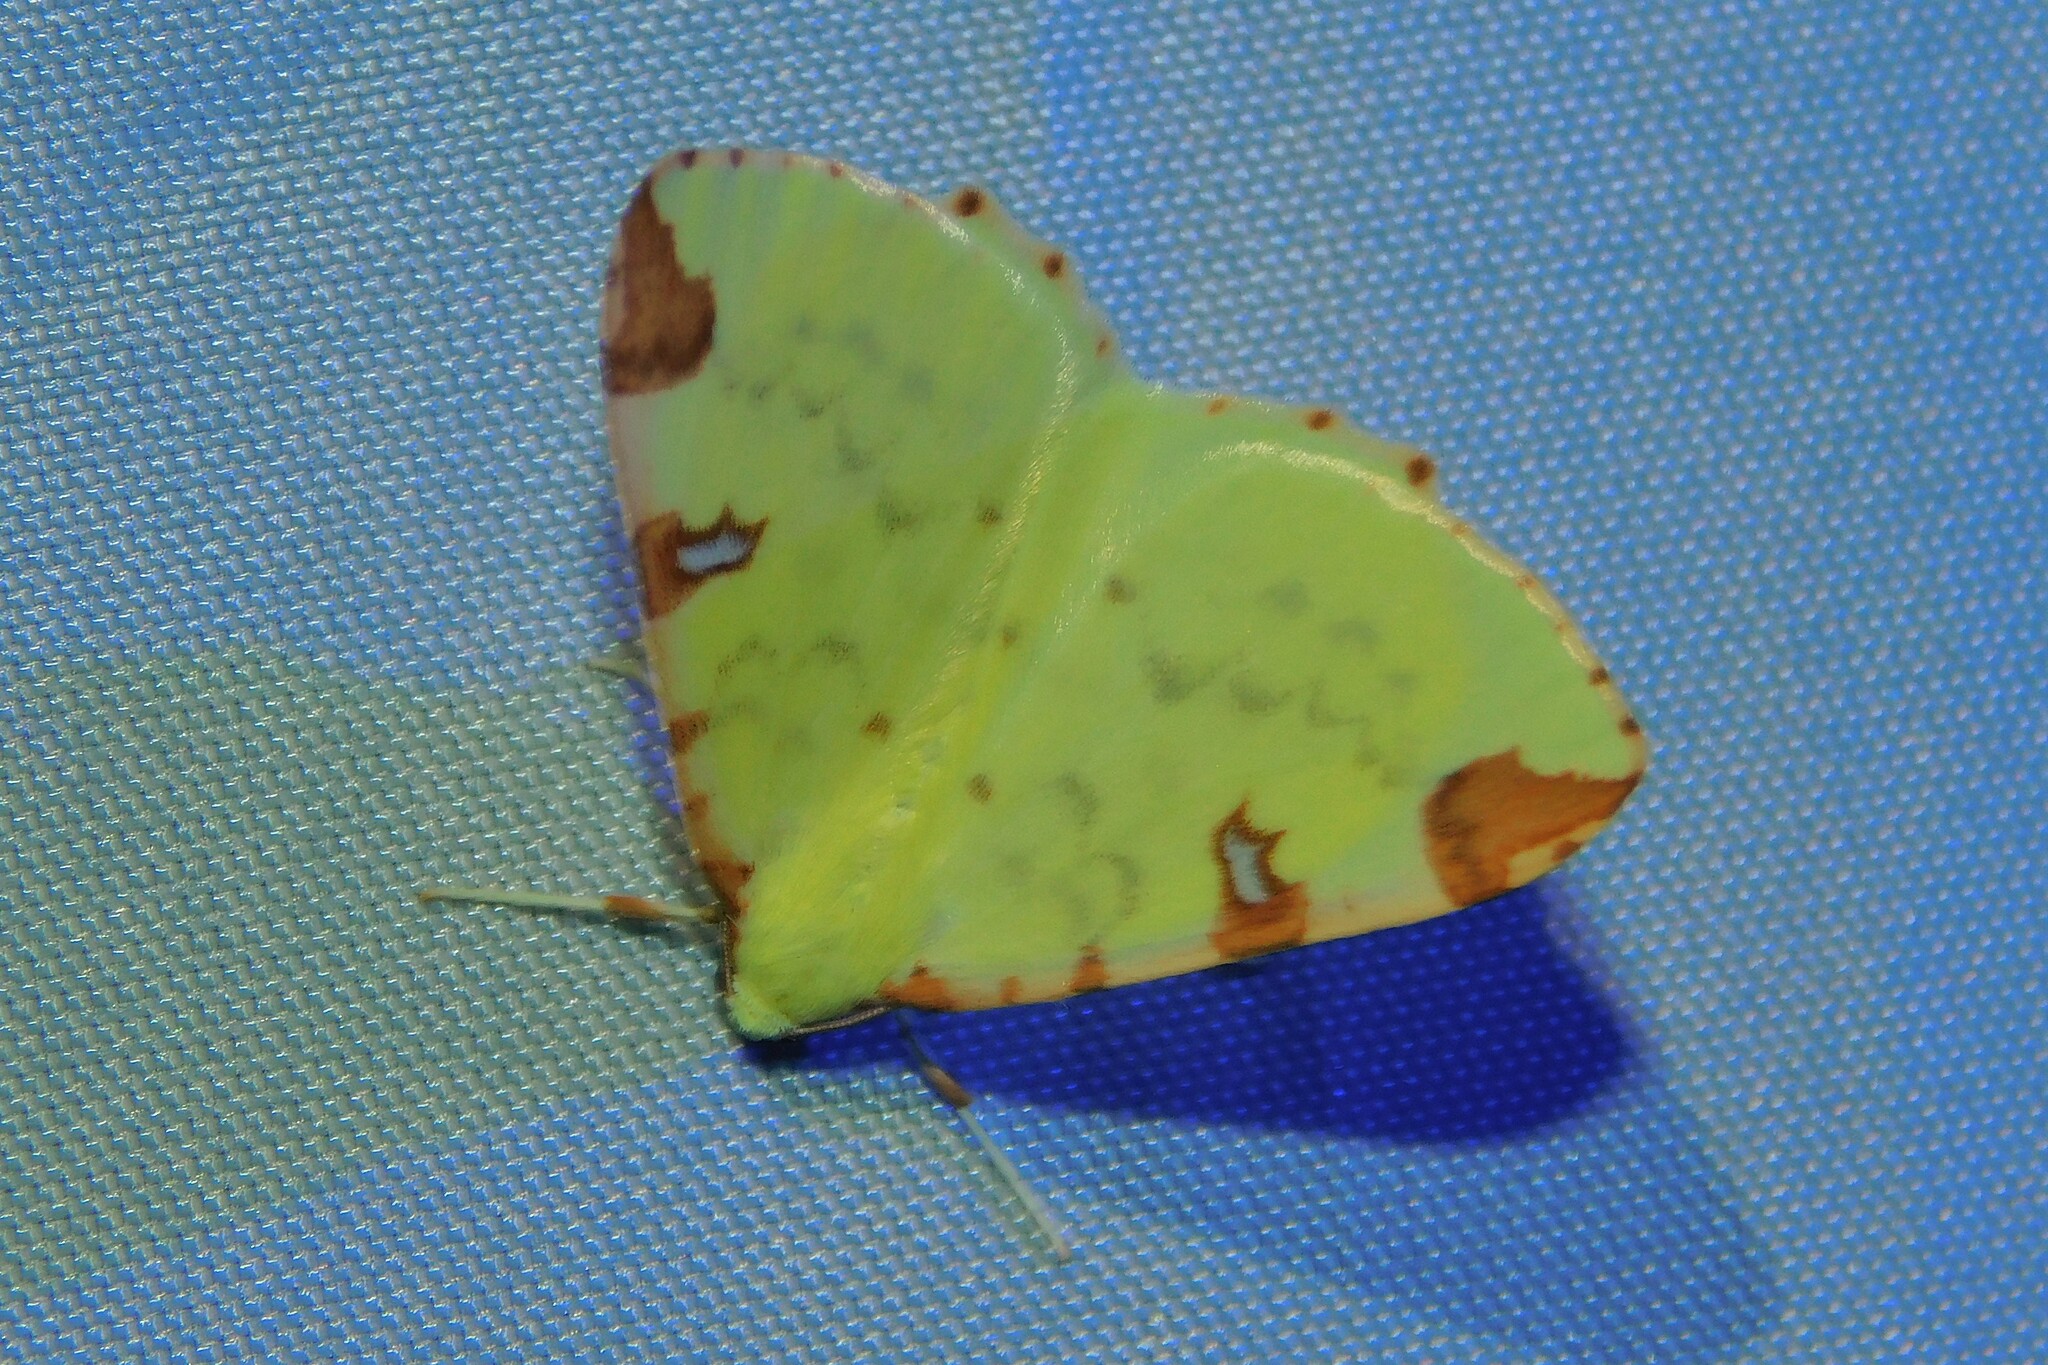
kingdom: Animalia
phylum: Arthropoda
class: Insecta
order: Lepidoptera
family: Geometridae
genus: Opisthograptis
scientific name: Opisthograptis luteolata
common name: Brimstone moth
